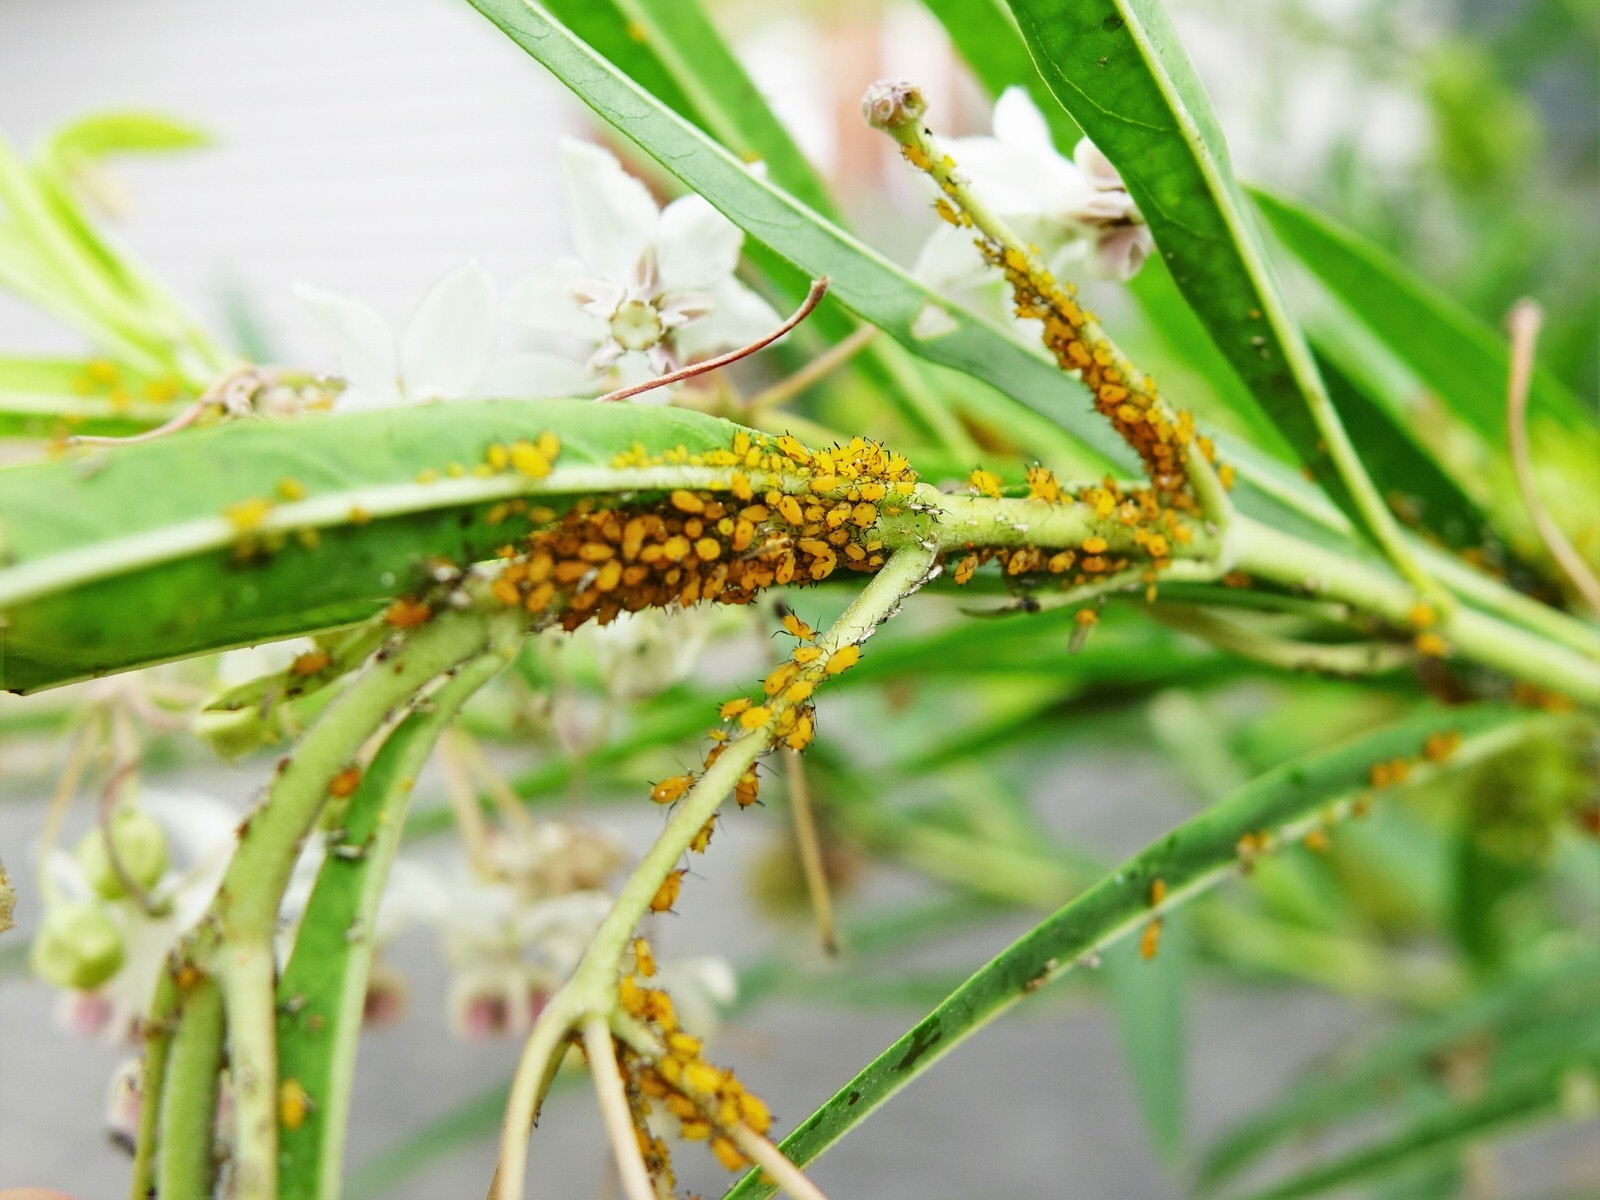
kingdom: Animalia
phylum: Arthropoda
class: Insecta
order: Hemiptera
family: Aphididae
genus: Aphis
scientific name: Aphis nerii
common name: Oleander aphid
